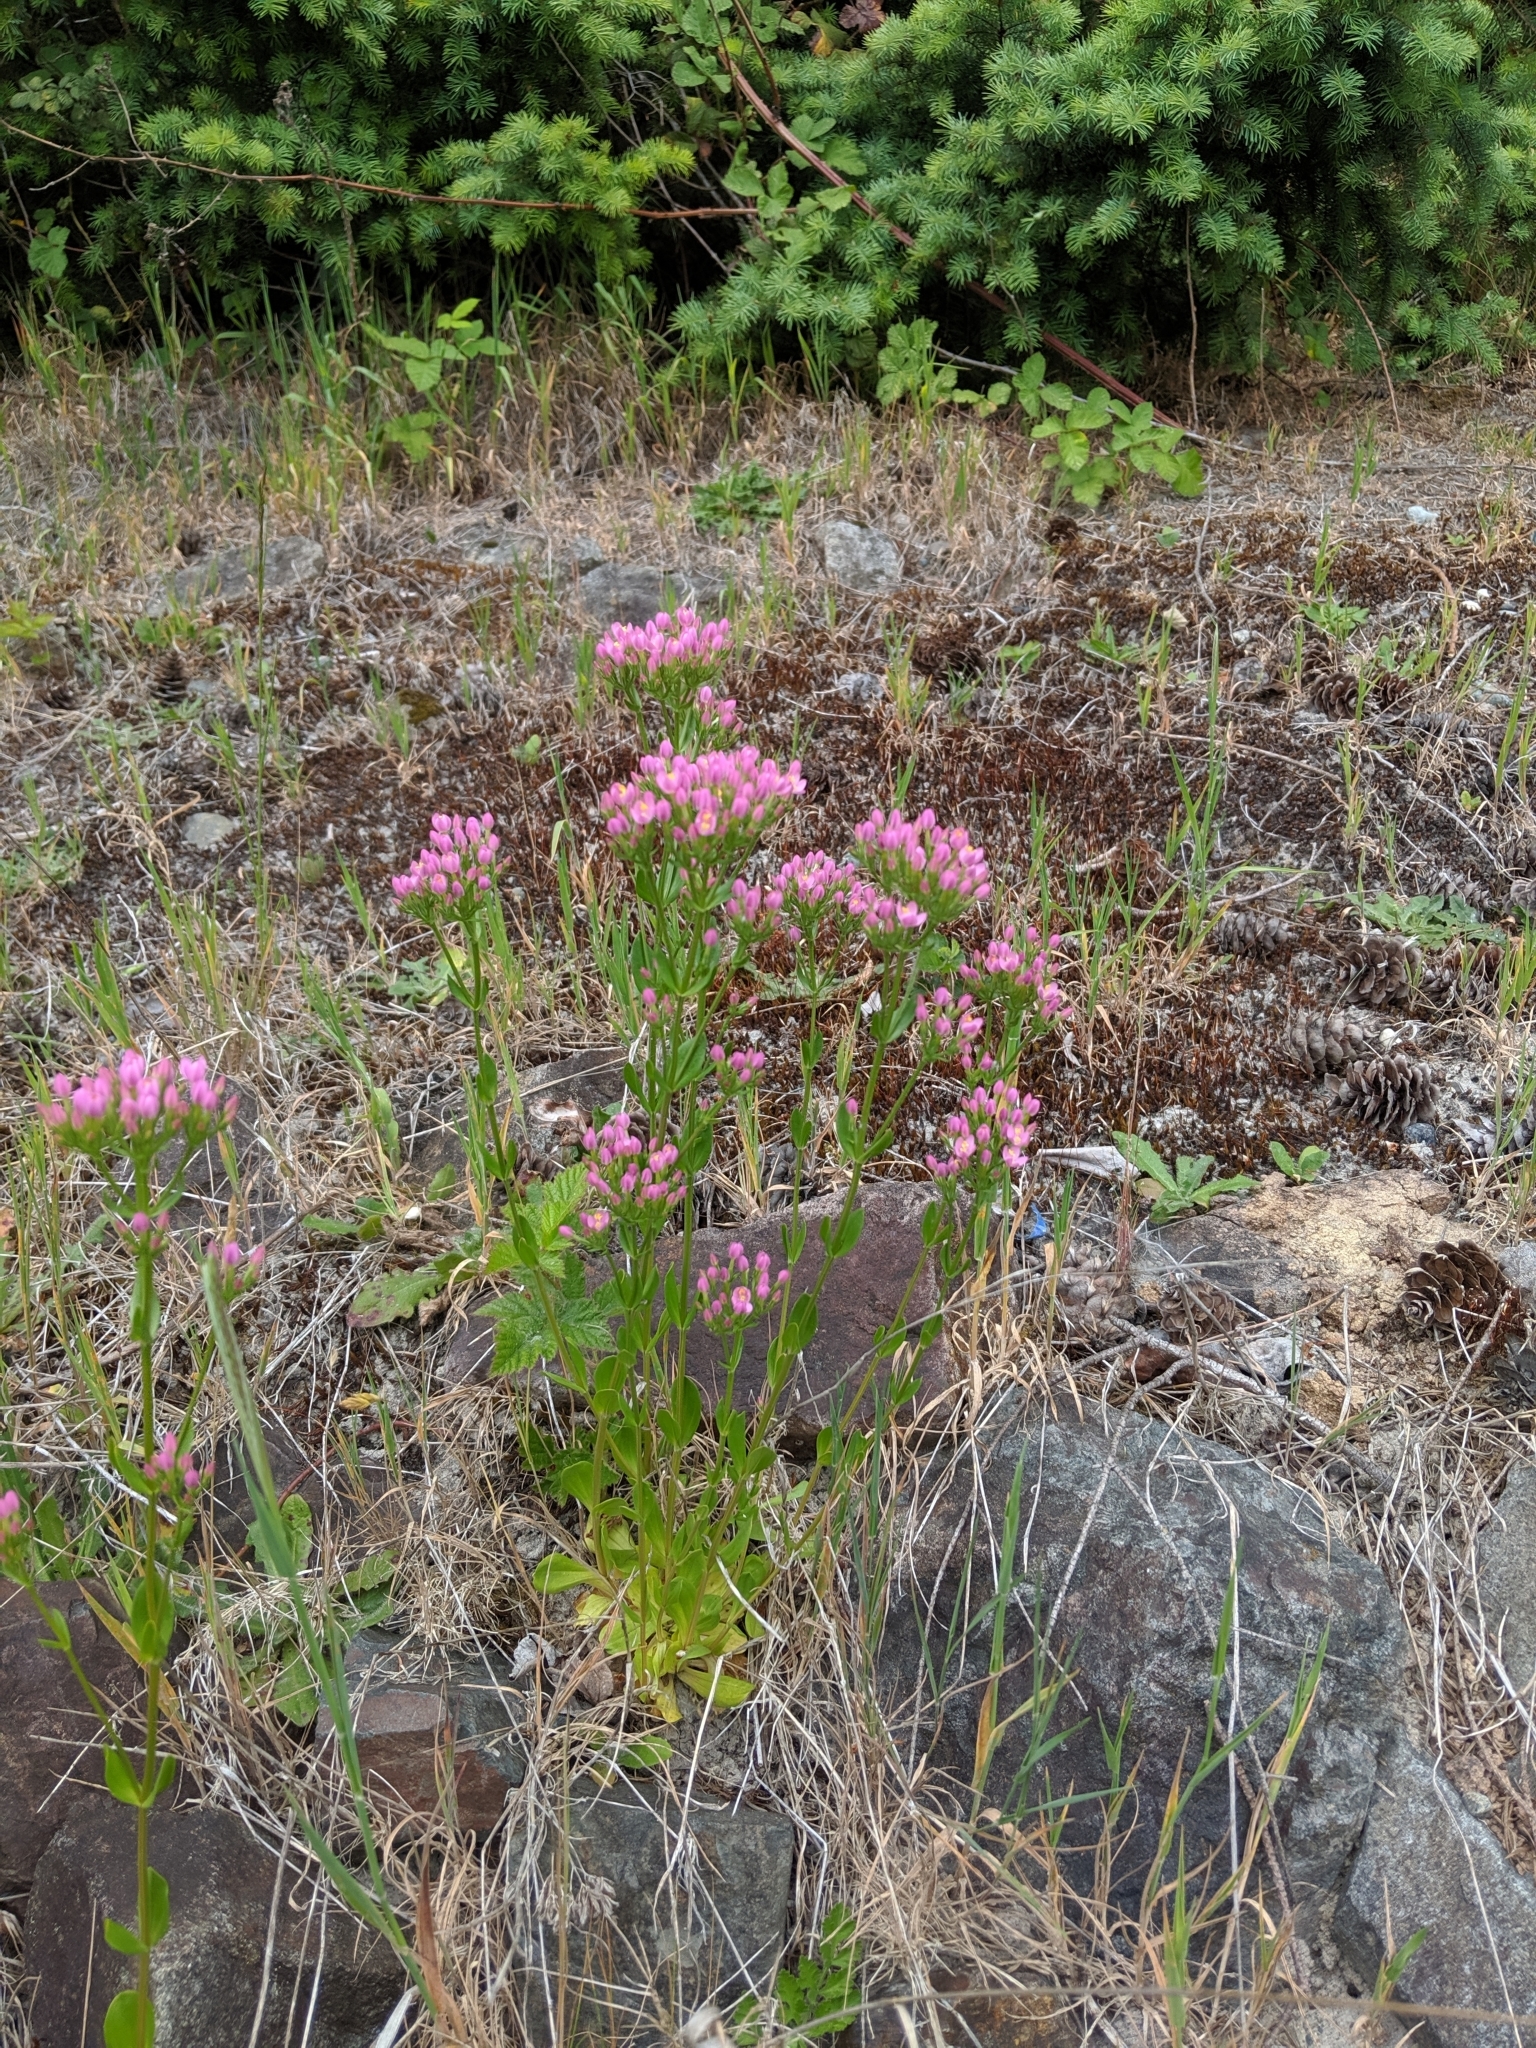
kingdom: Plantae
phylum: Tracheophyta
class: Magnoliopsida
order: Gentianales
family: Gentianaceae
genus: Centaurium
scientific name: Centaurium erythraea
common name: Common centaury
